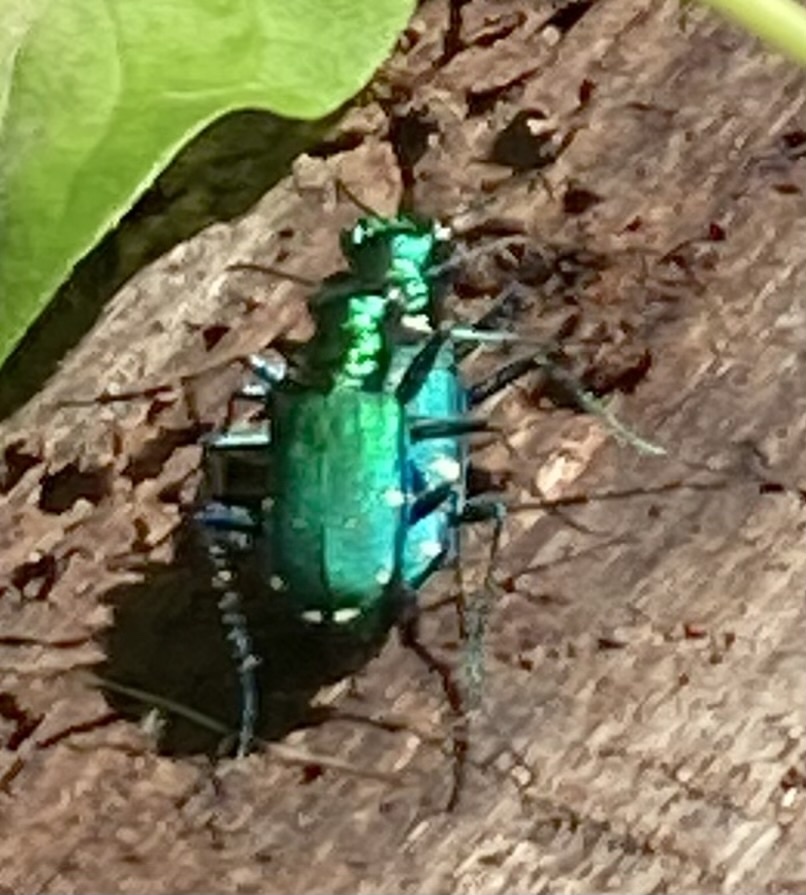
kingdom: Animalia
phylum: Arthropoda
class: Insecta
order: Coleoptera
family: Carabidae
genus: Cicindela
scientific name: Cicindela sexguttata
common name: Six-spotted tiger beetle
